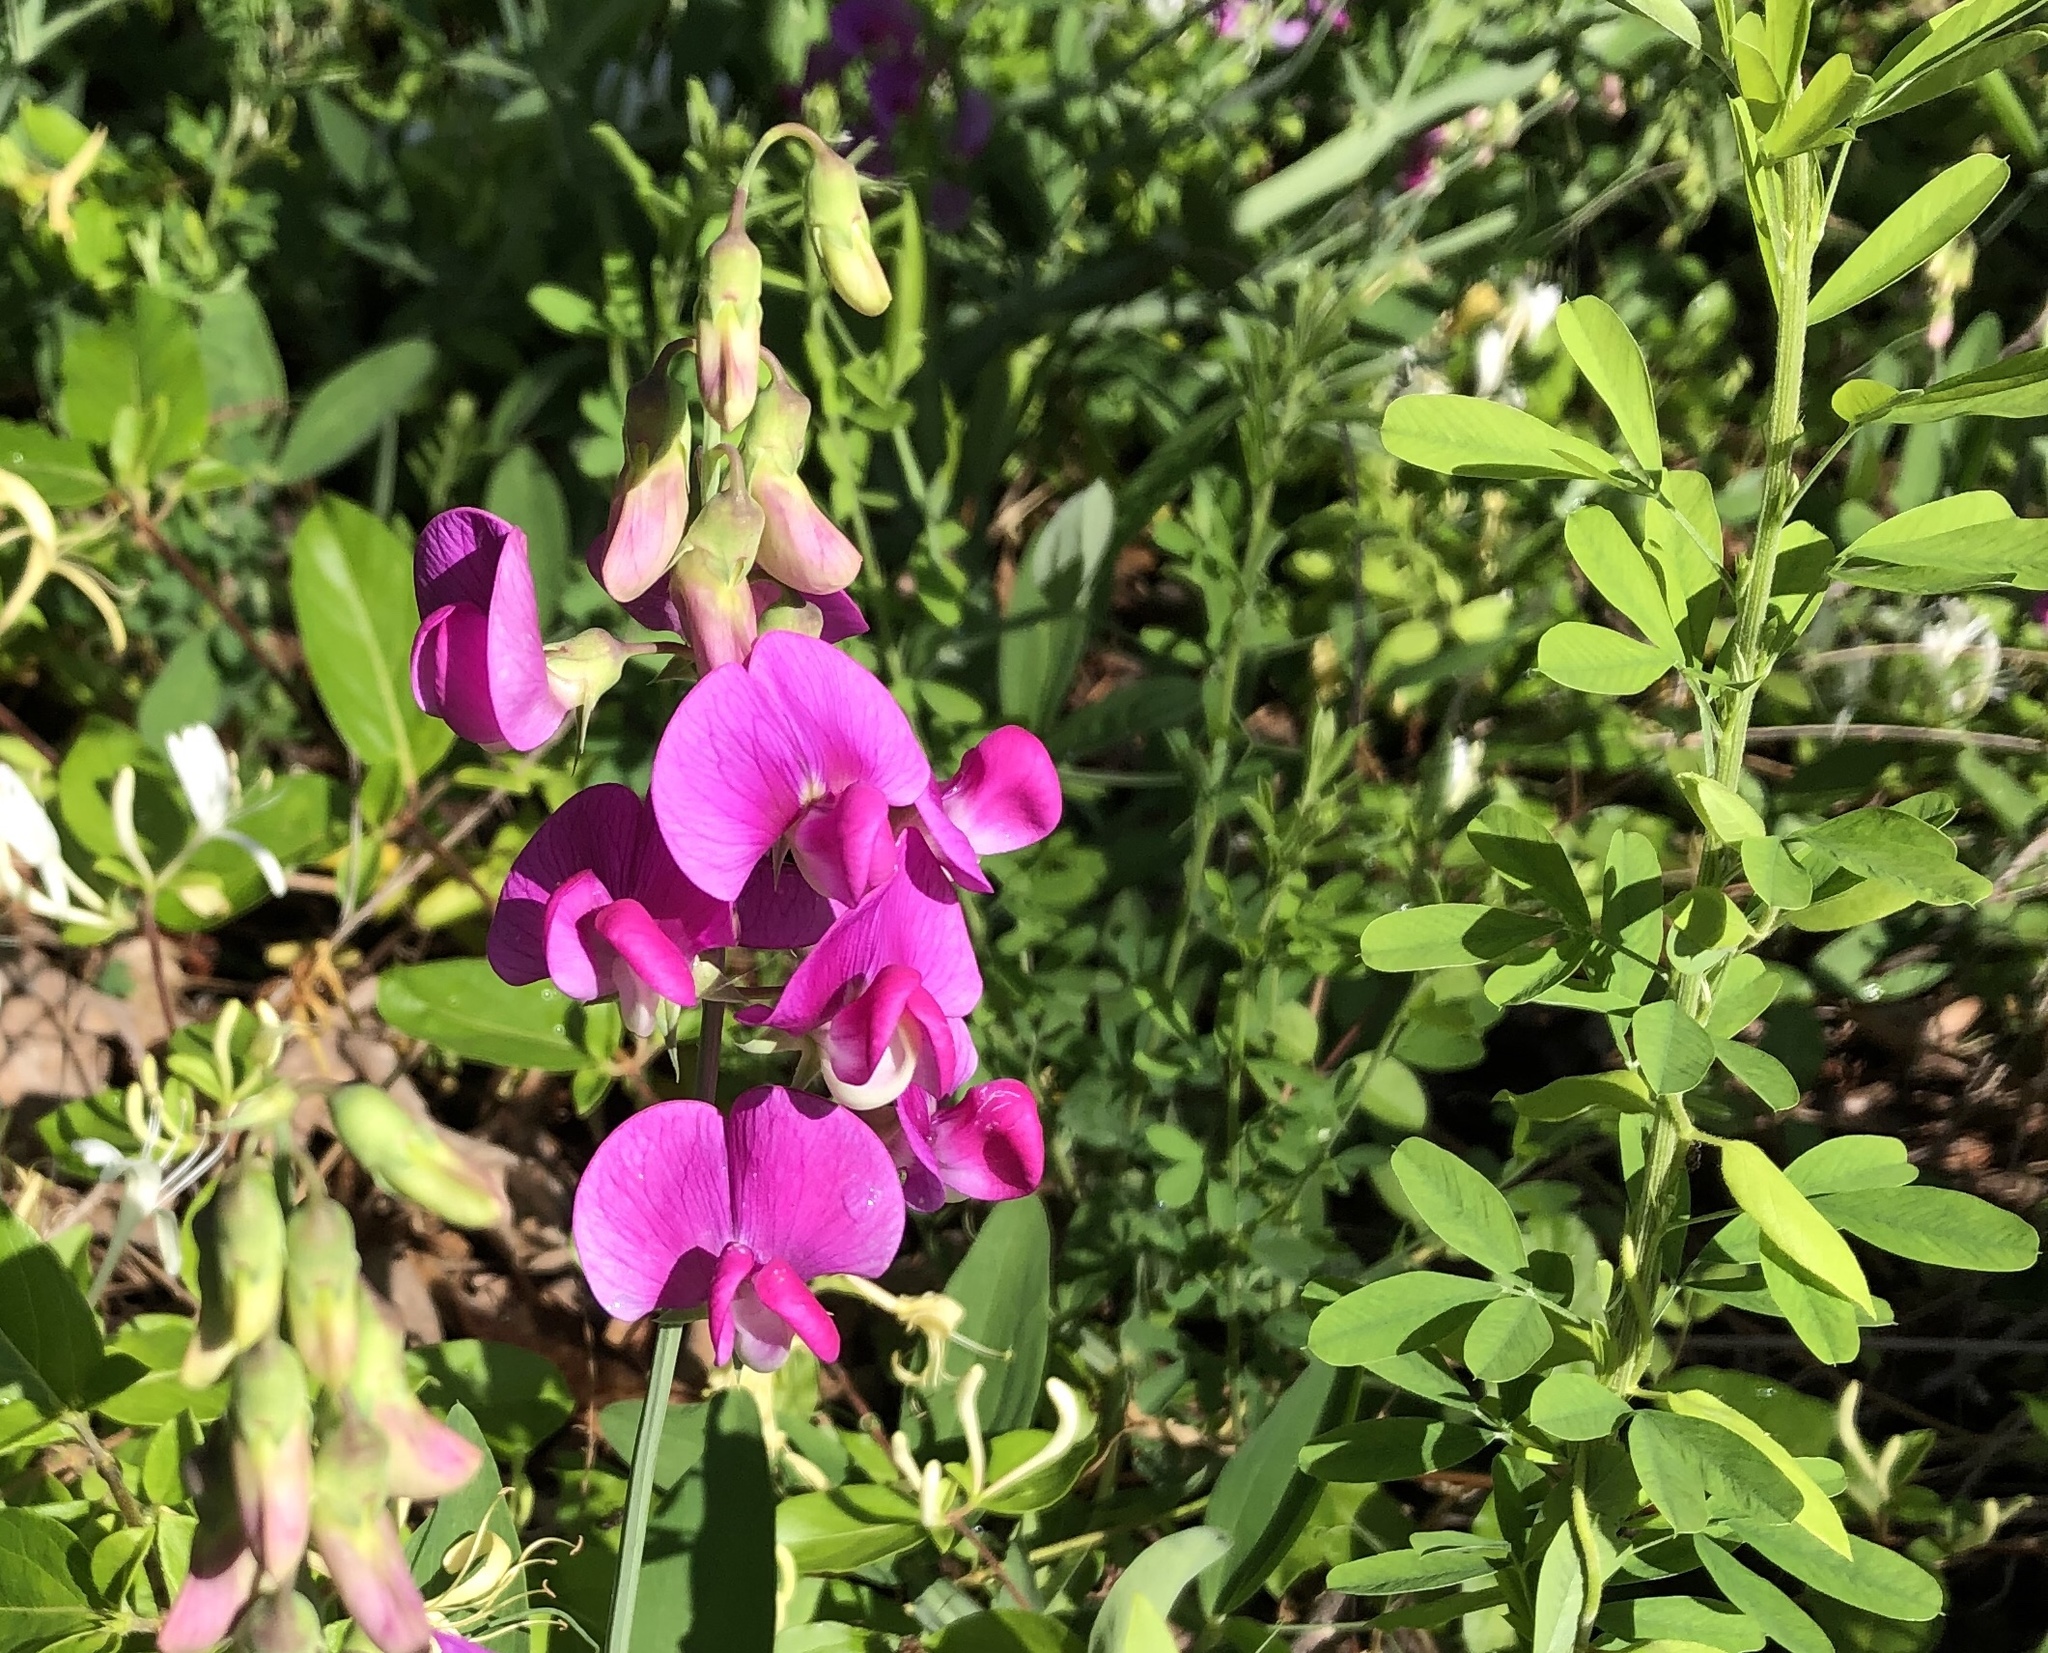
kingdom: Plantae
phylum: Tracheophyta
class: Magnoliopsida
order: Fabales
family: Fabaceae
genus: Lathyrus
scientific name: Lathyrus latifolius
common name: Perennial pea
